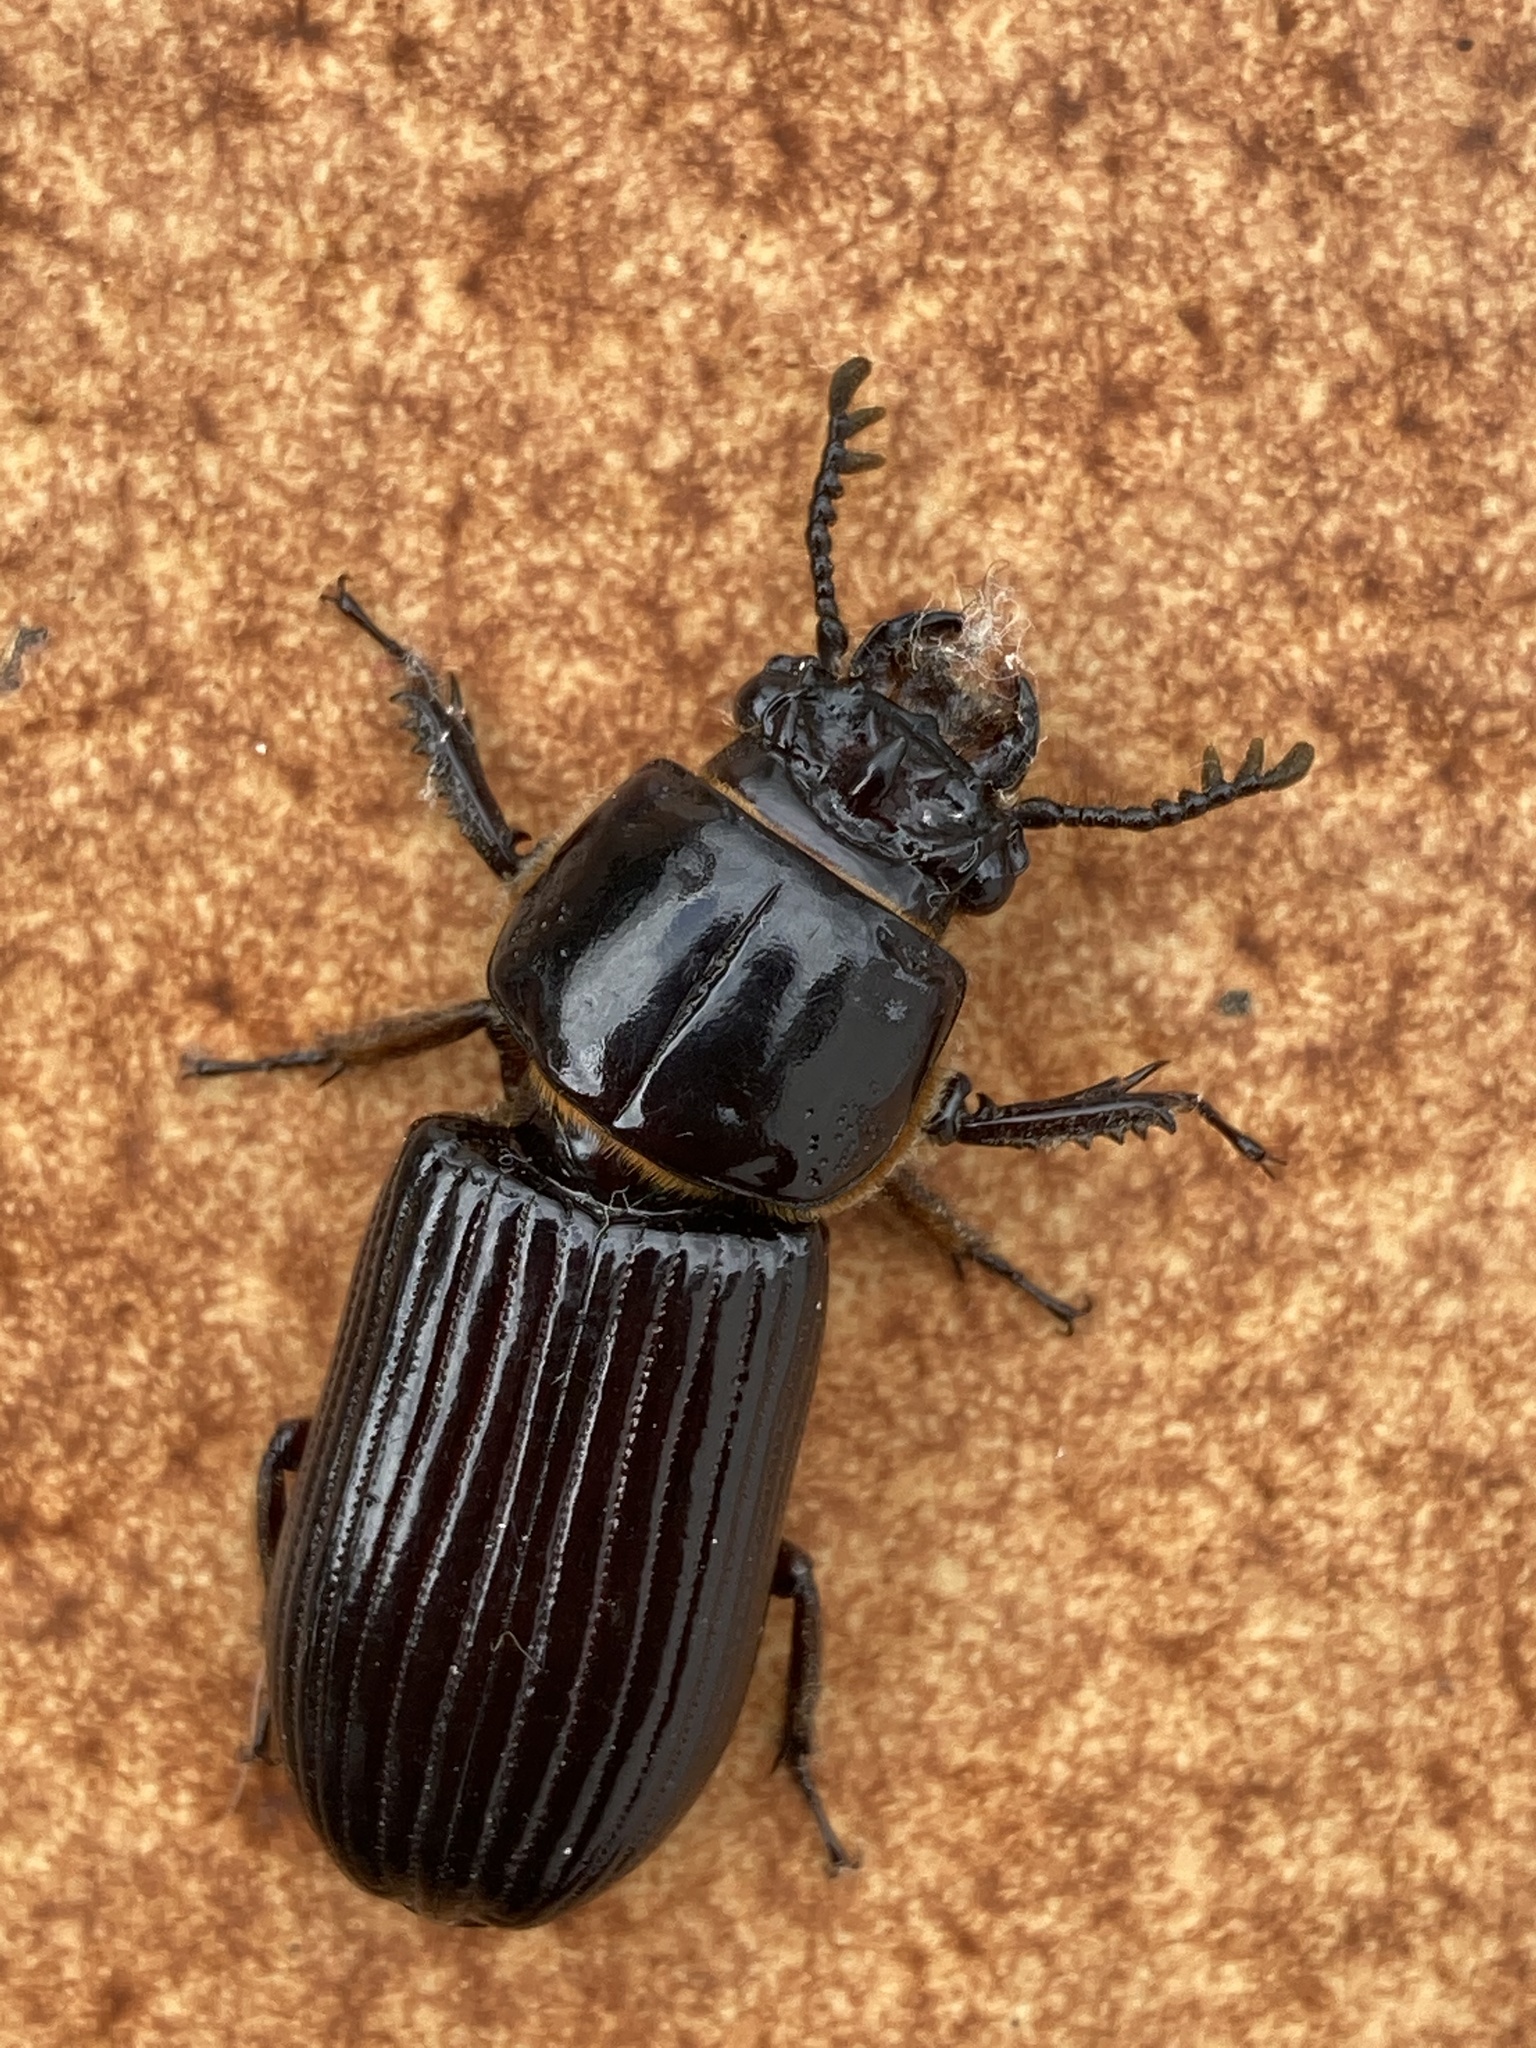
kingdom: Animalia
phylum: Arthropoda
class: Insecta
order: Coleoptera
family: Passalidae
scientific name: Passalidae
